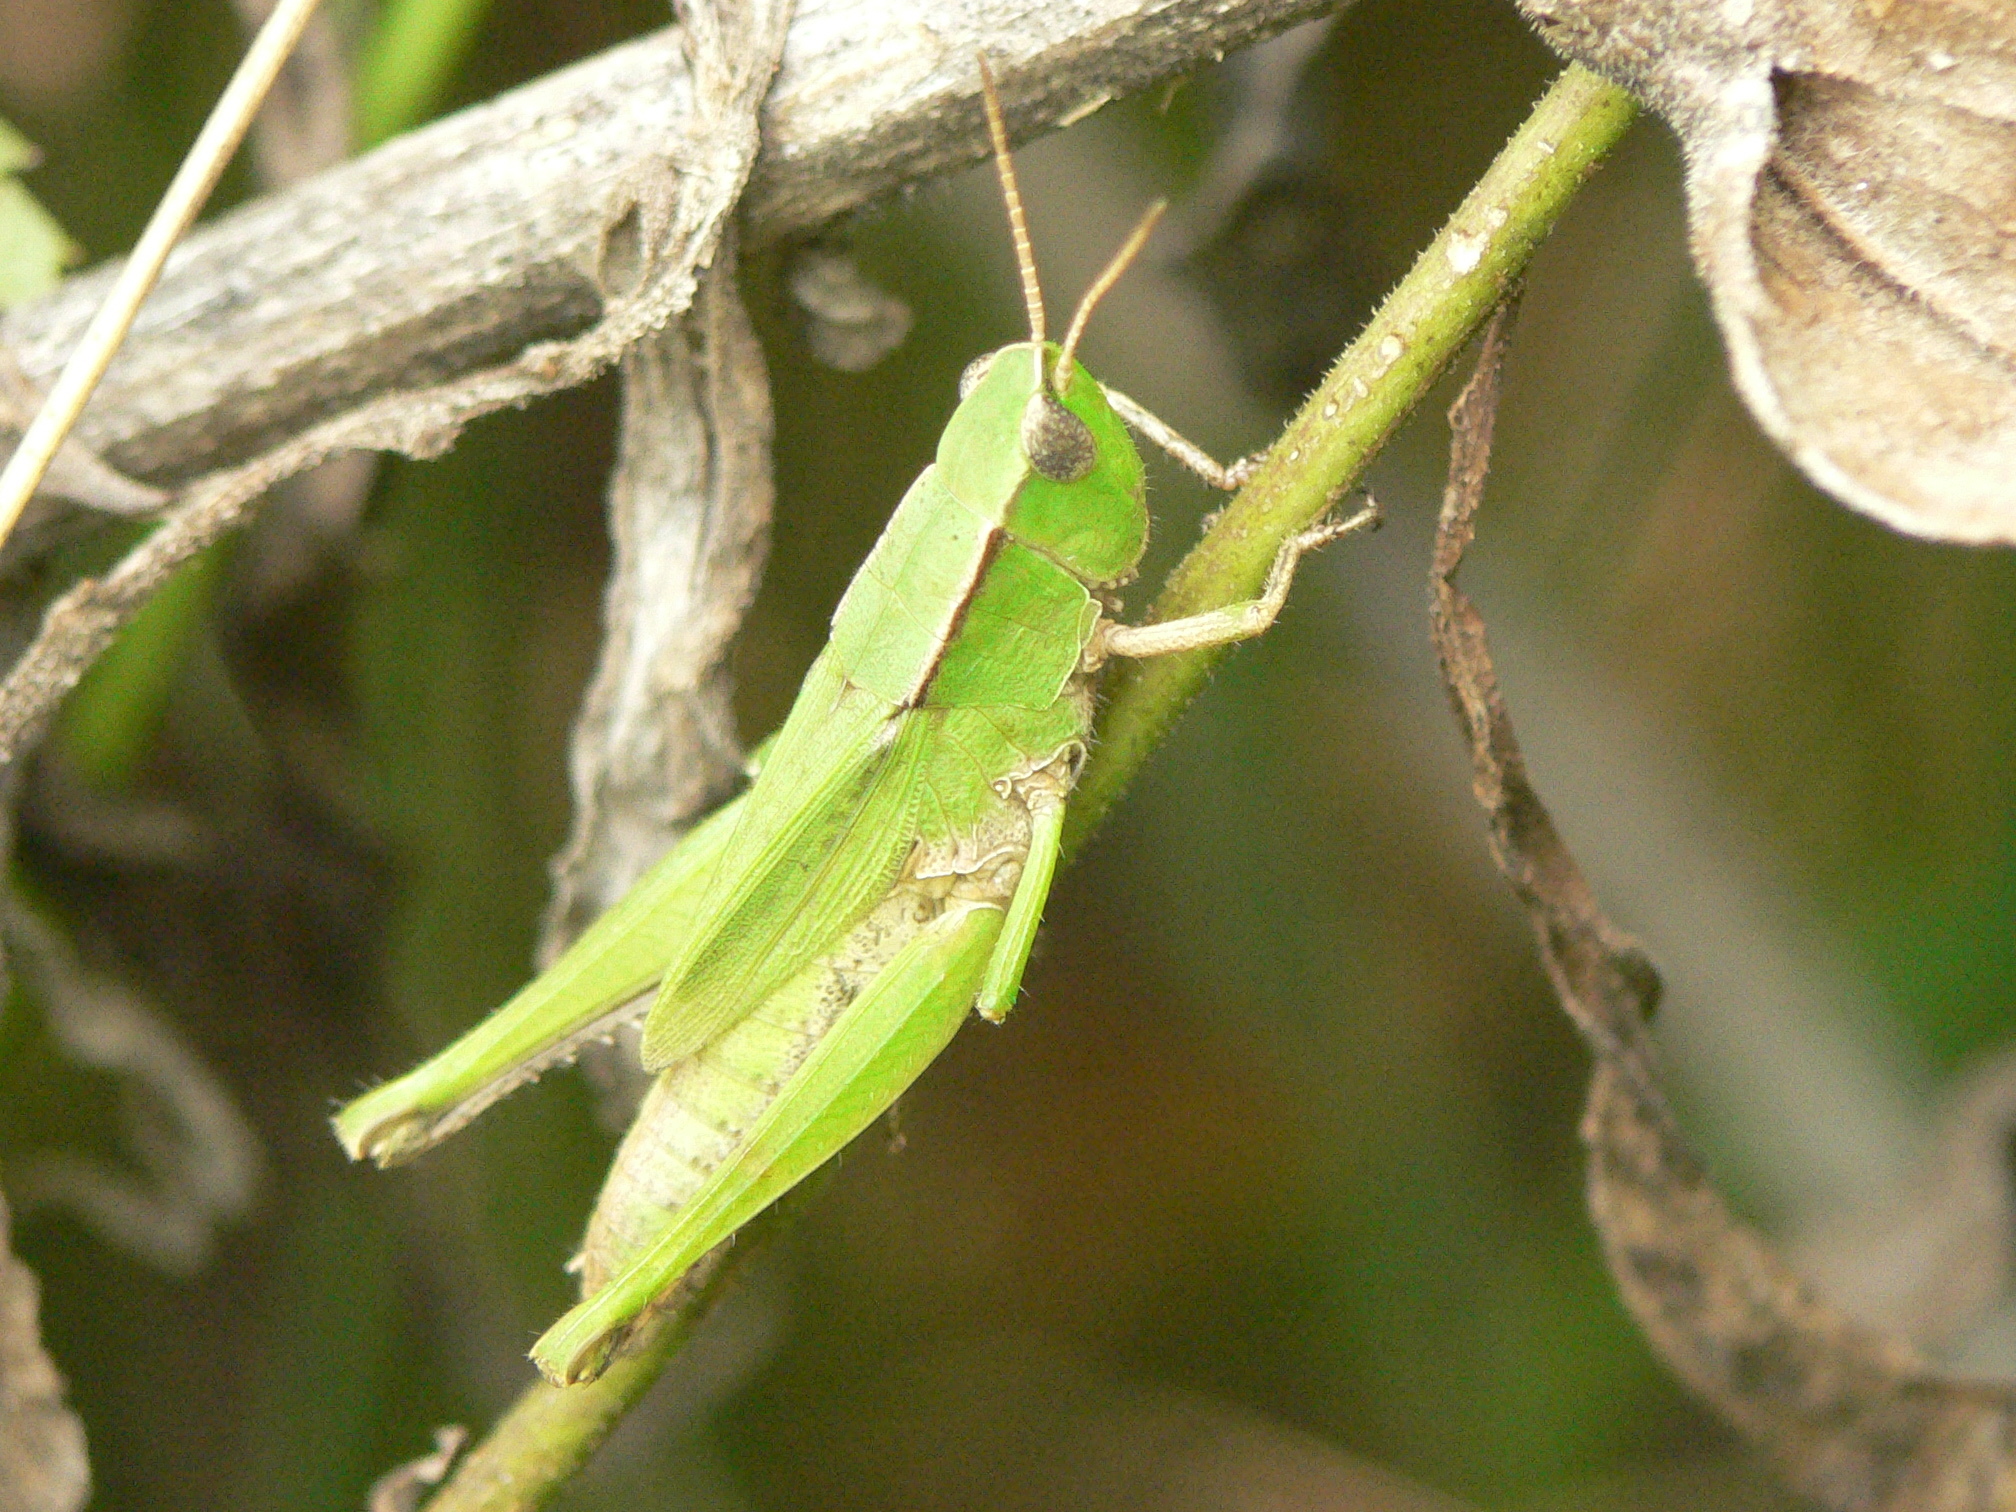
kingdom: Animalia
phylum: Arthropoda
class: Insecta
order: Orthoptera
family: Acrididae
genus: Dichromorpha
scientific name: Dichromorpha viridis
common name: Short-winged green grasshopper
